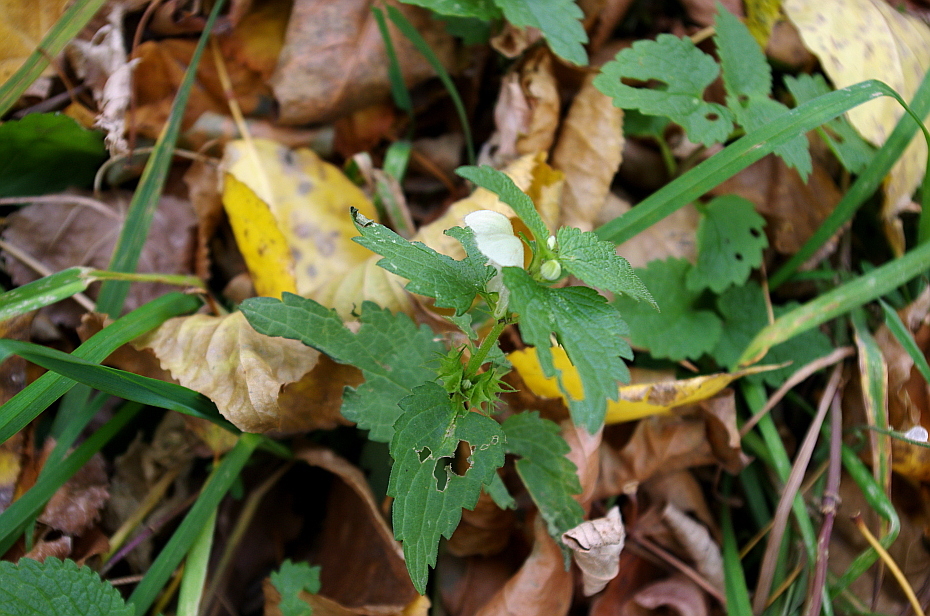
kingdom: Plantae
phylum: Tracheophyta
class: Magnoliopsida
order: Lamiales
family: Lamiaceae
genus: Lamium
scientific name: Lamium album
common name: White dead-nettle
